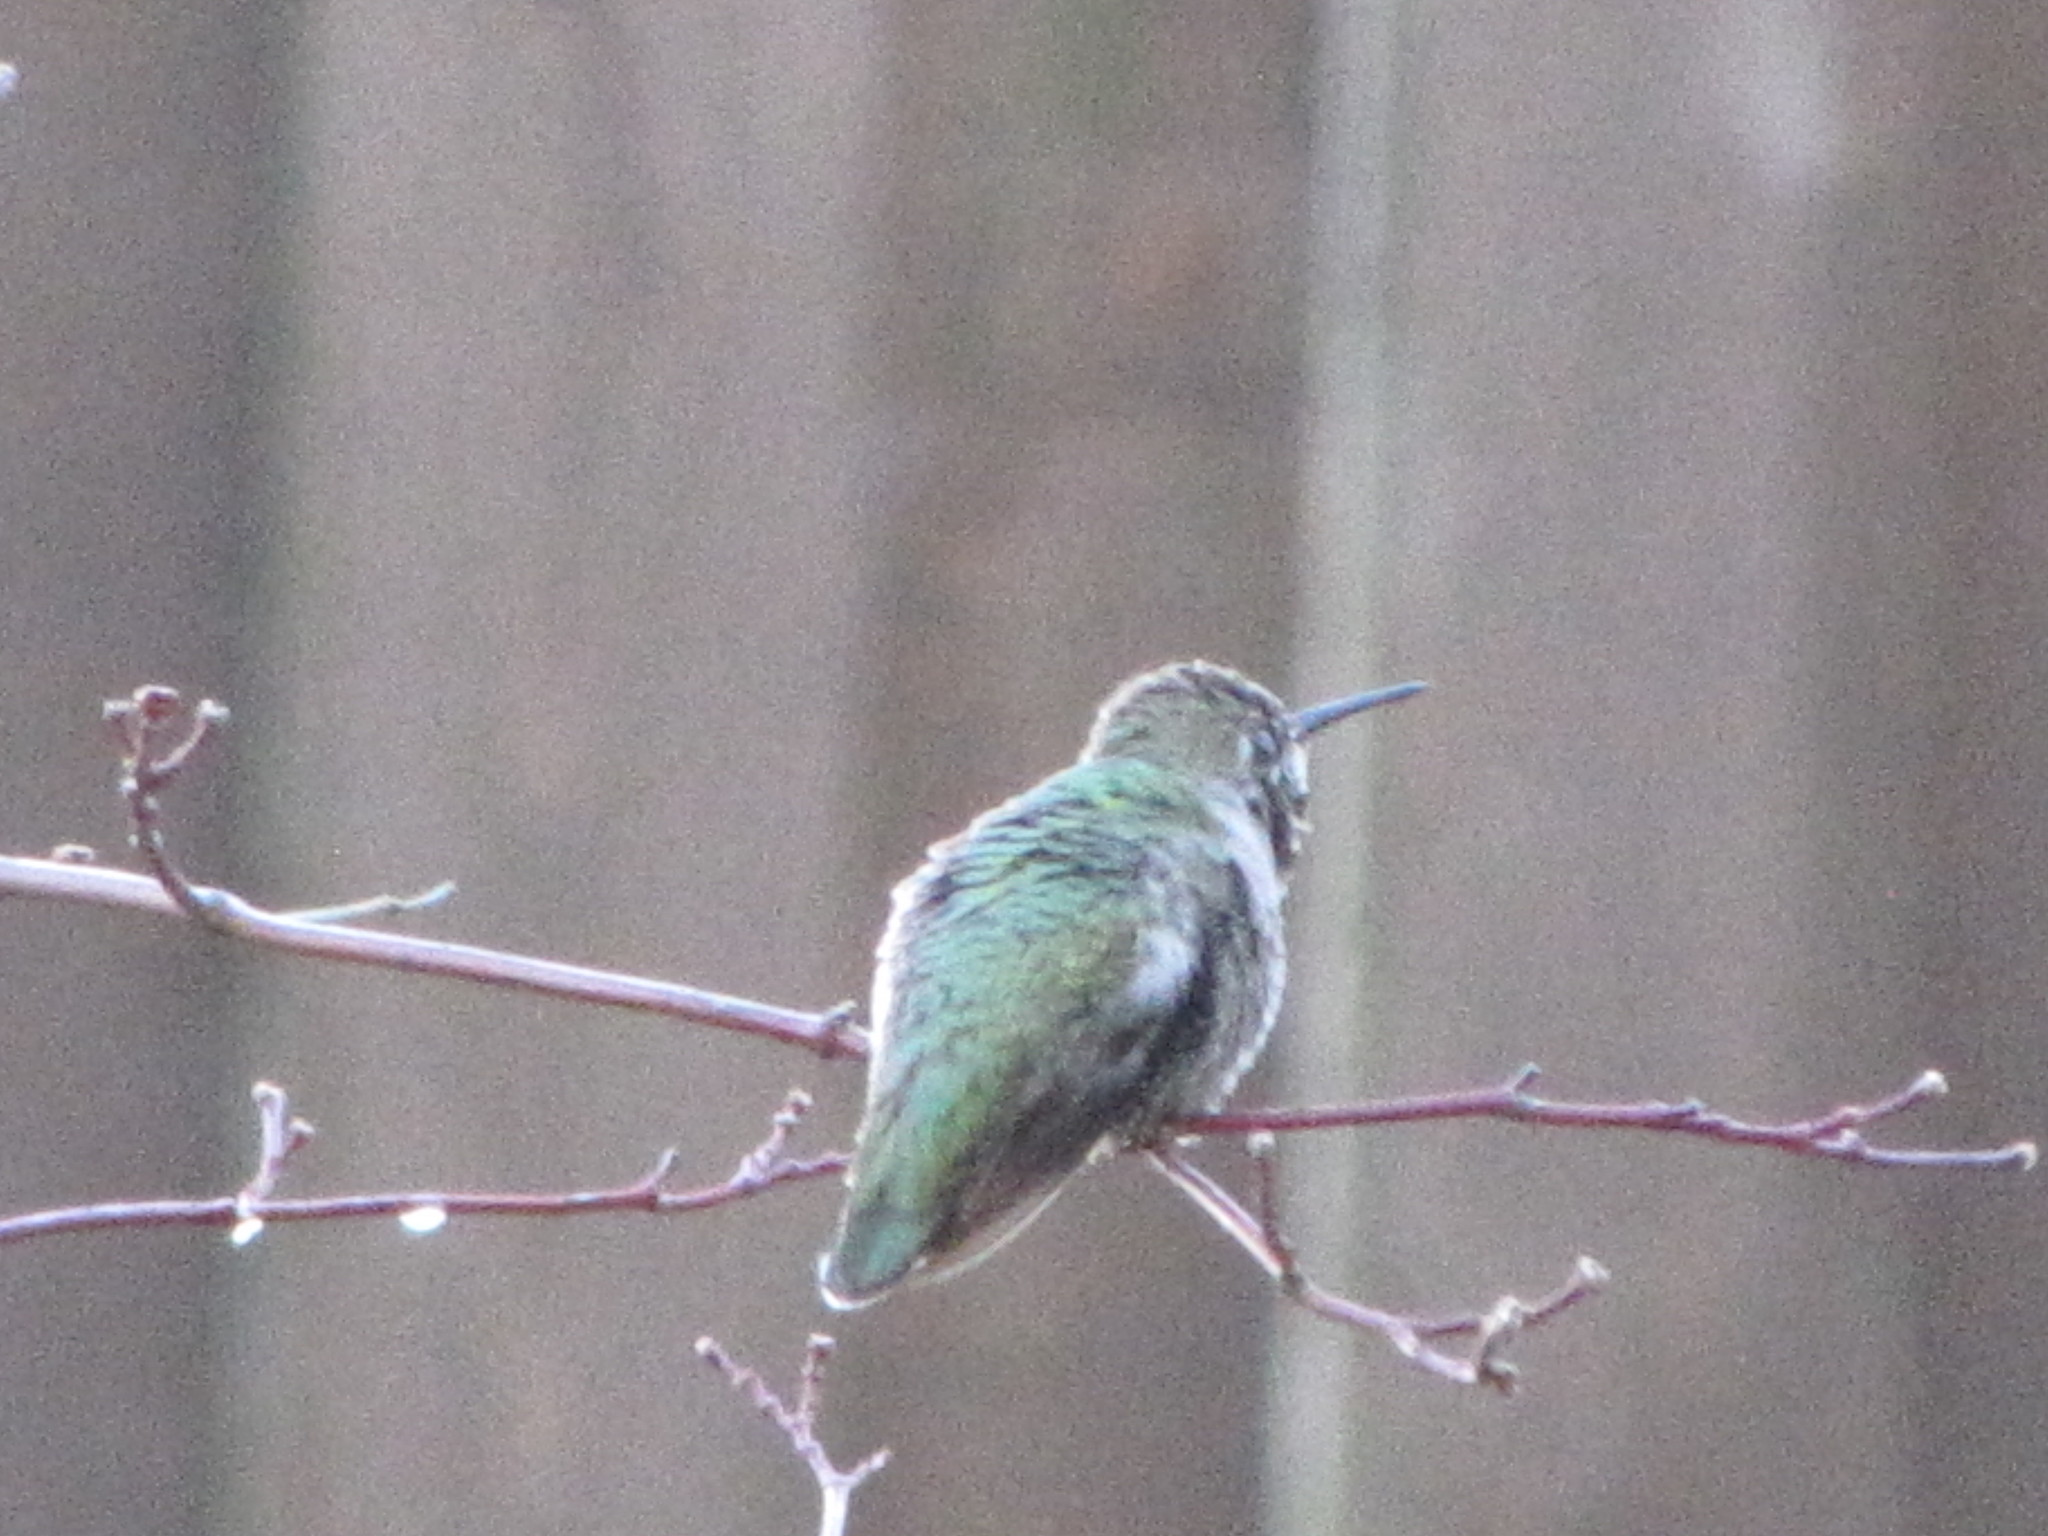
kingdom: Animalia
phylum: Chordata
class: Aves
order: Apodiformes
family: Trochilidae
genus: Calypte
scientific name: Calypte anna
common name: Anna's hummingbird
